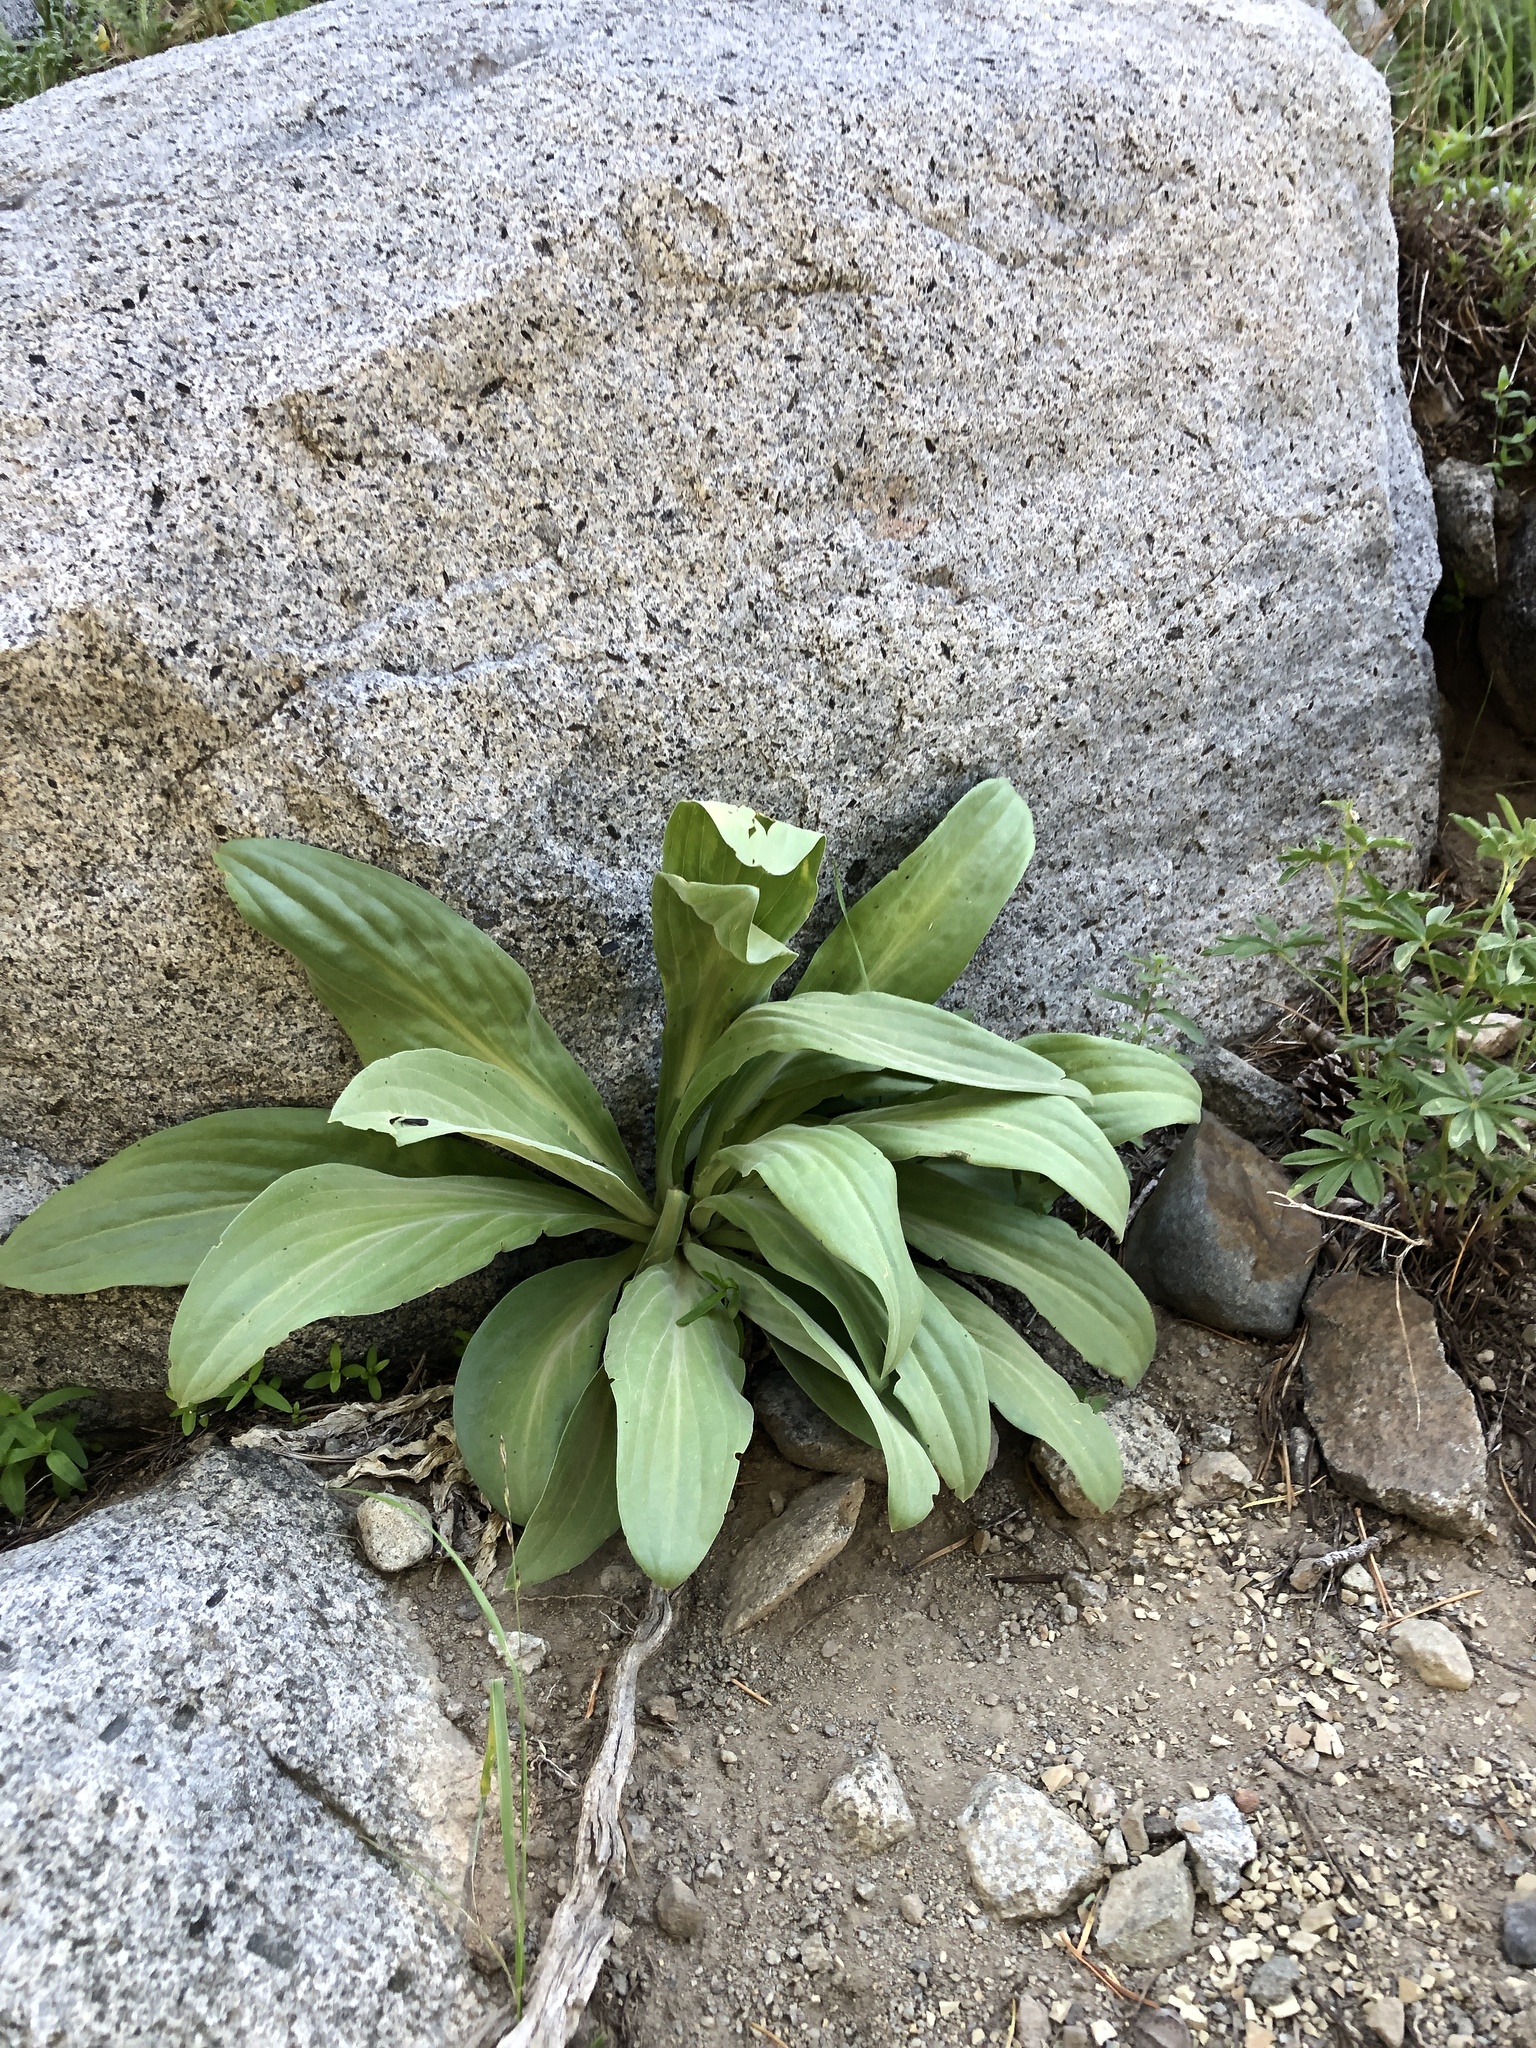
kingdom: Plantae
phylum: Tracheophyta
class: Magnoliopsida
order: Gentianales
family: Gentianaceae
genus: Frasera
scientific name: Frasera speciosa
